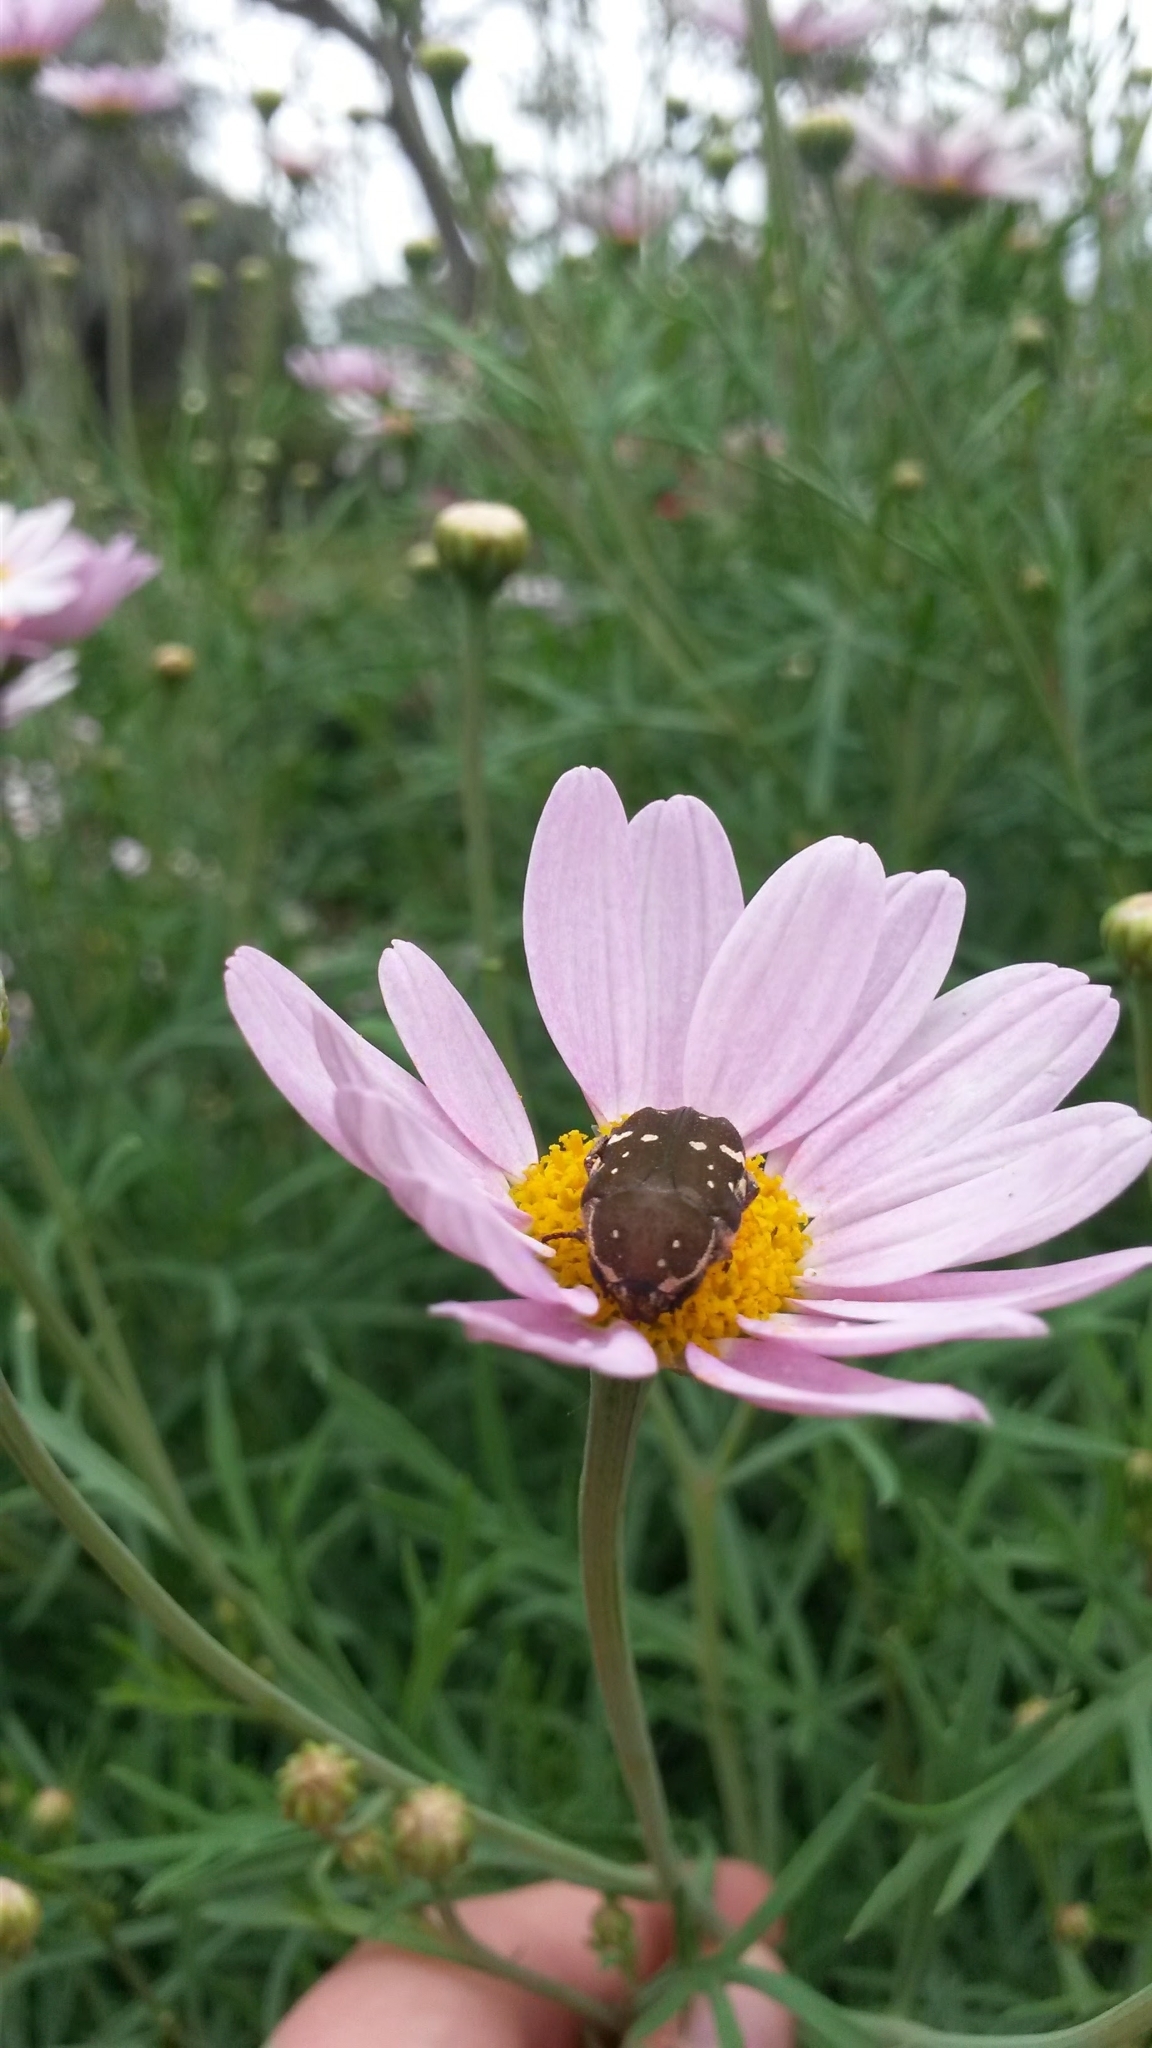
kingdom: Animalia
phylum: Arthropoda
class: Insecta
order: Coleoptera
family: Scarabaeidae
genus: Glycyphana
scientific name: Glycyphana stolata
